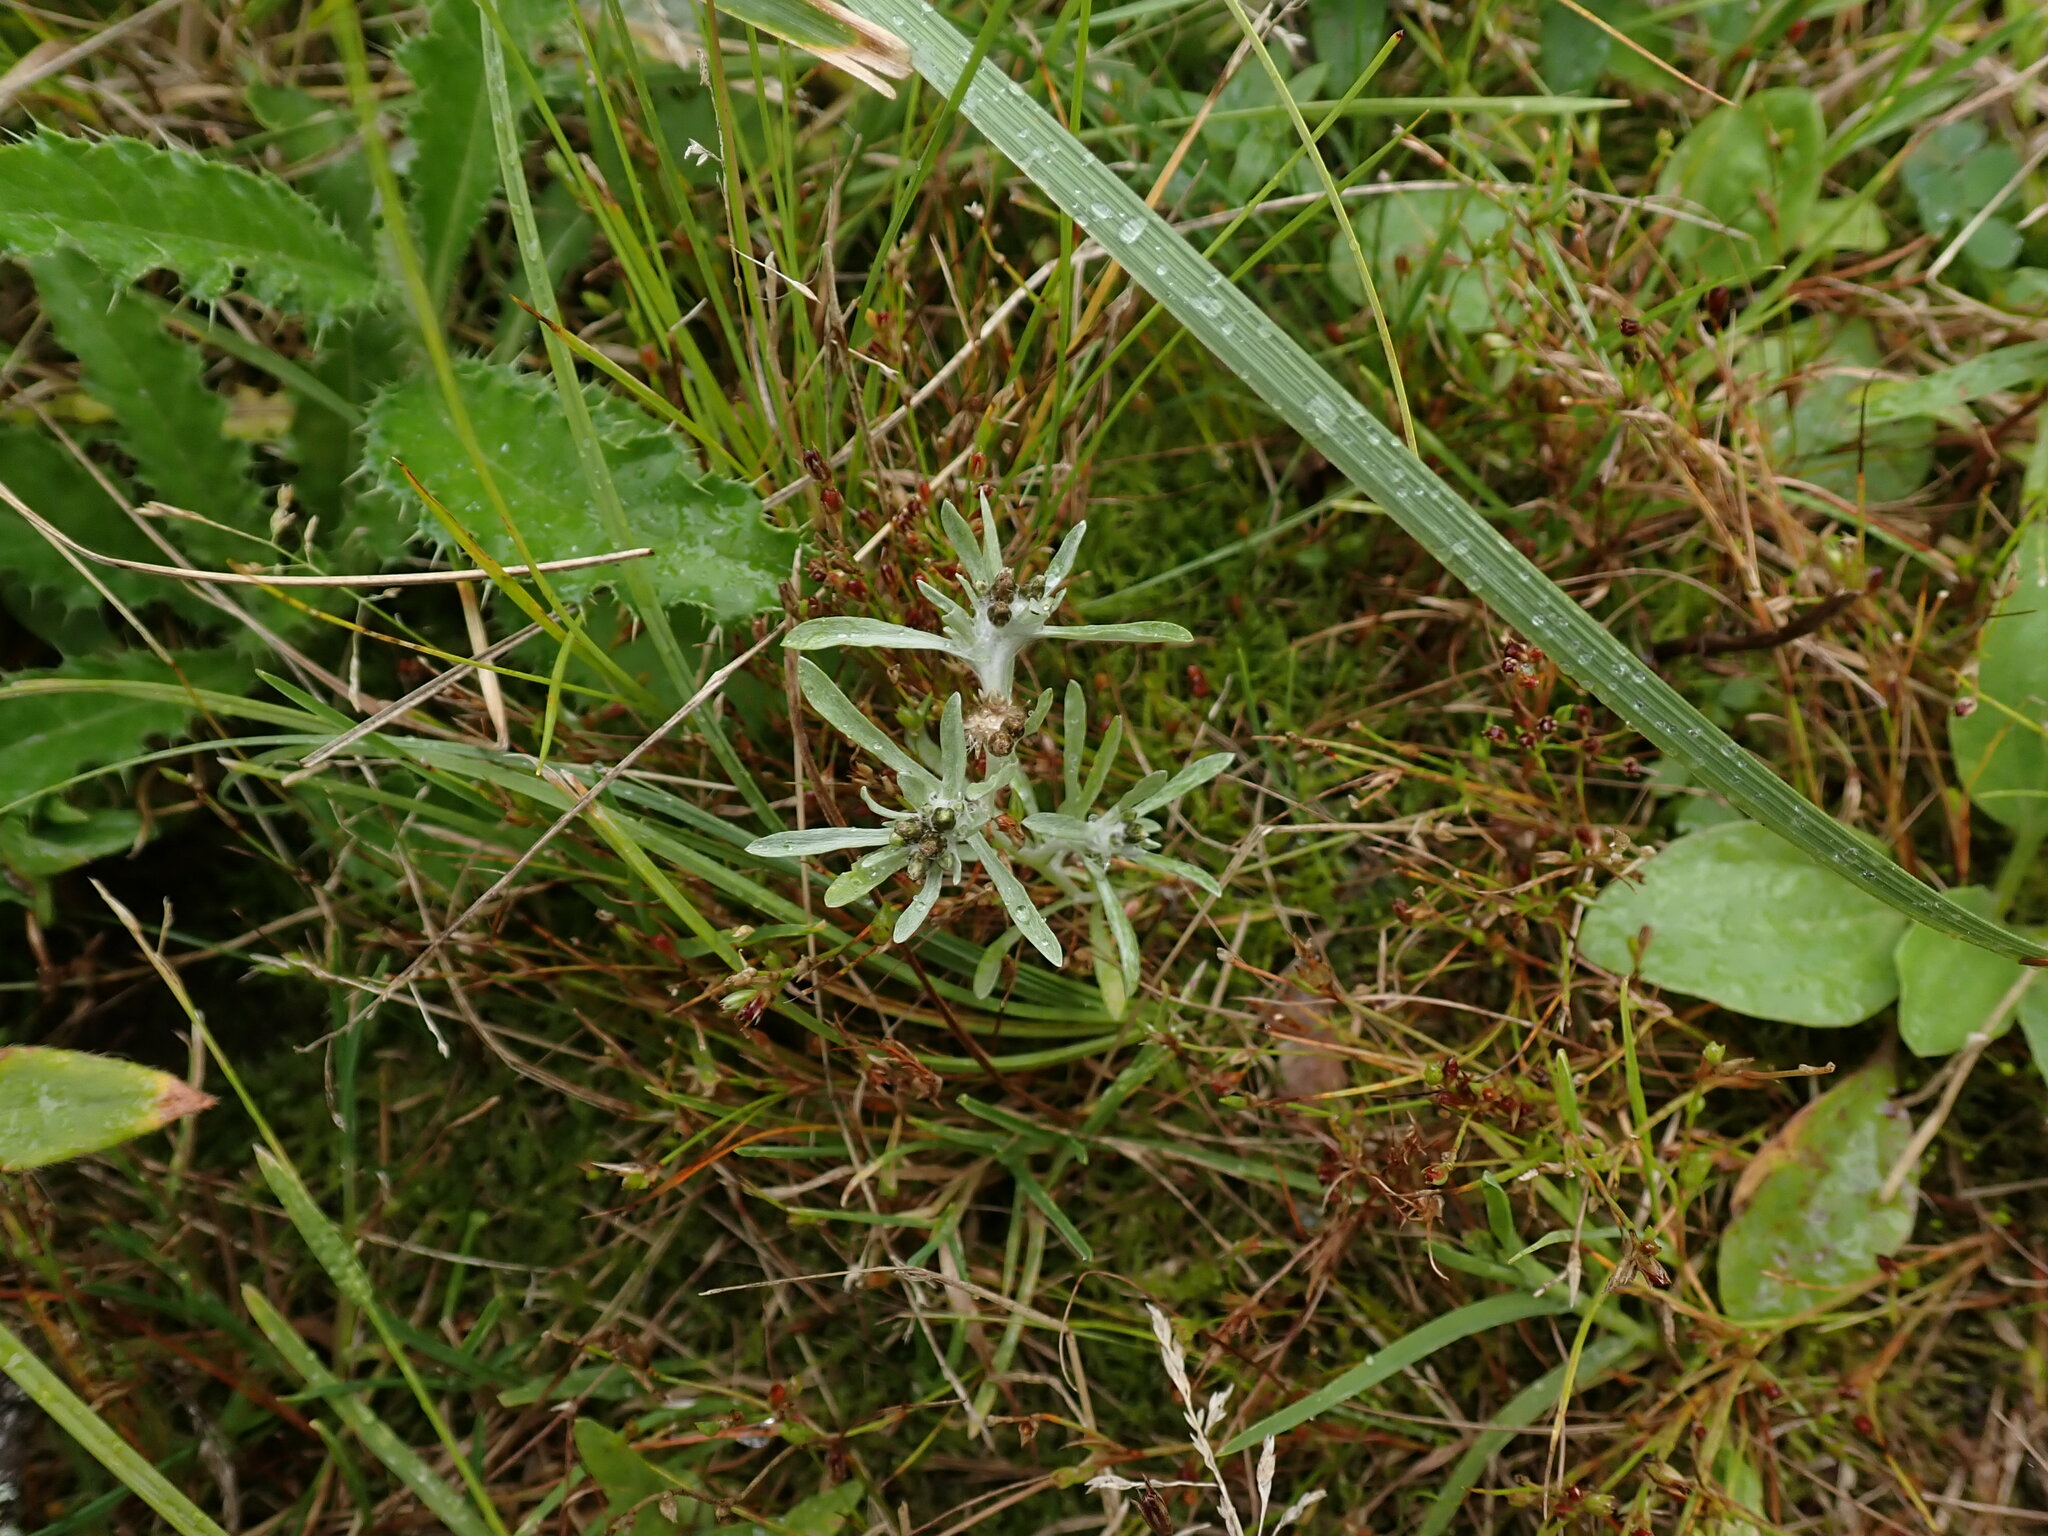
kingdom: Plantae
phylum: Tracheophyta
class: Magnoliopsida
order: Asterales
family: Asteraceae
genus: Gnaphalium
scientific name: Gnaphalium uliginosum
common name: Marsh cudweed
